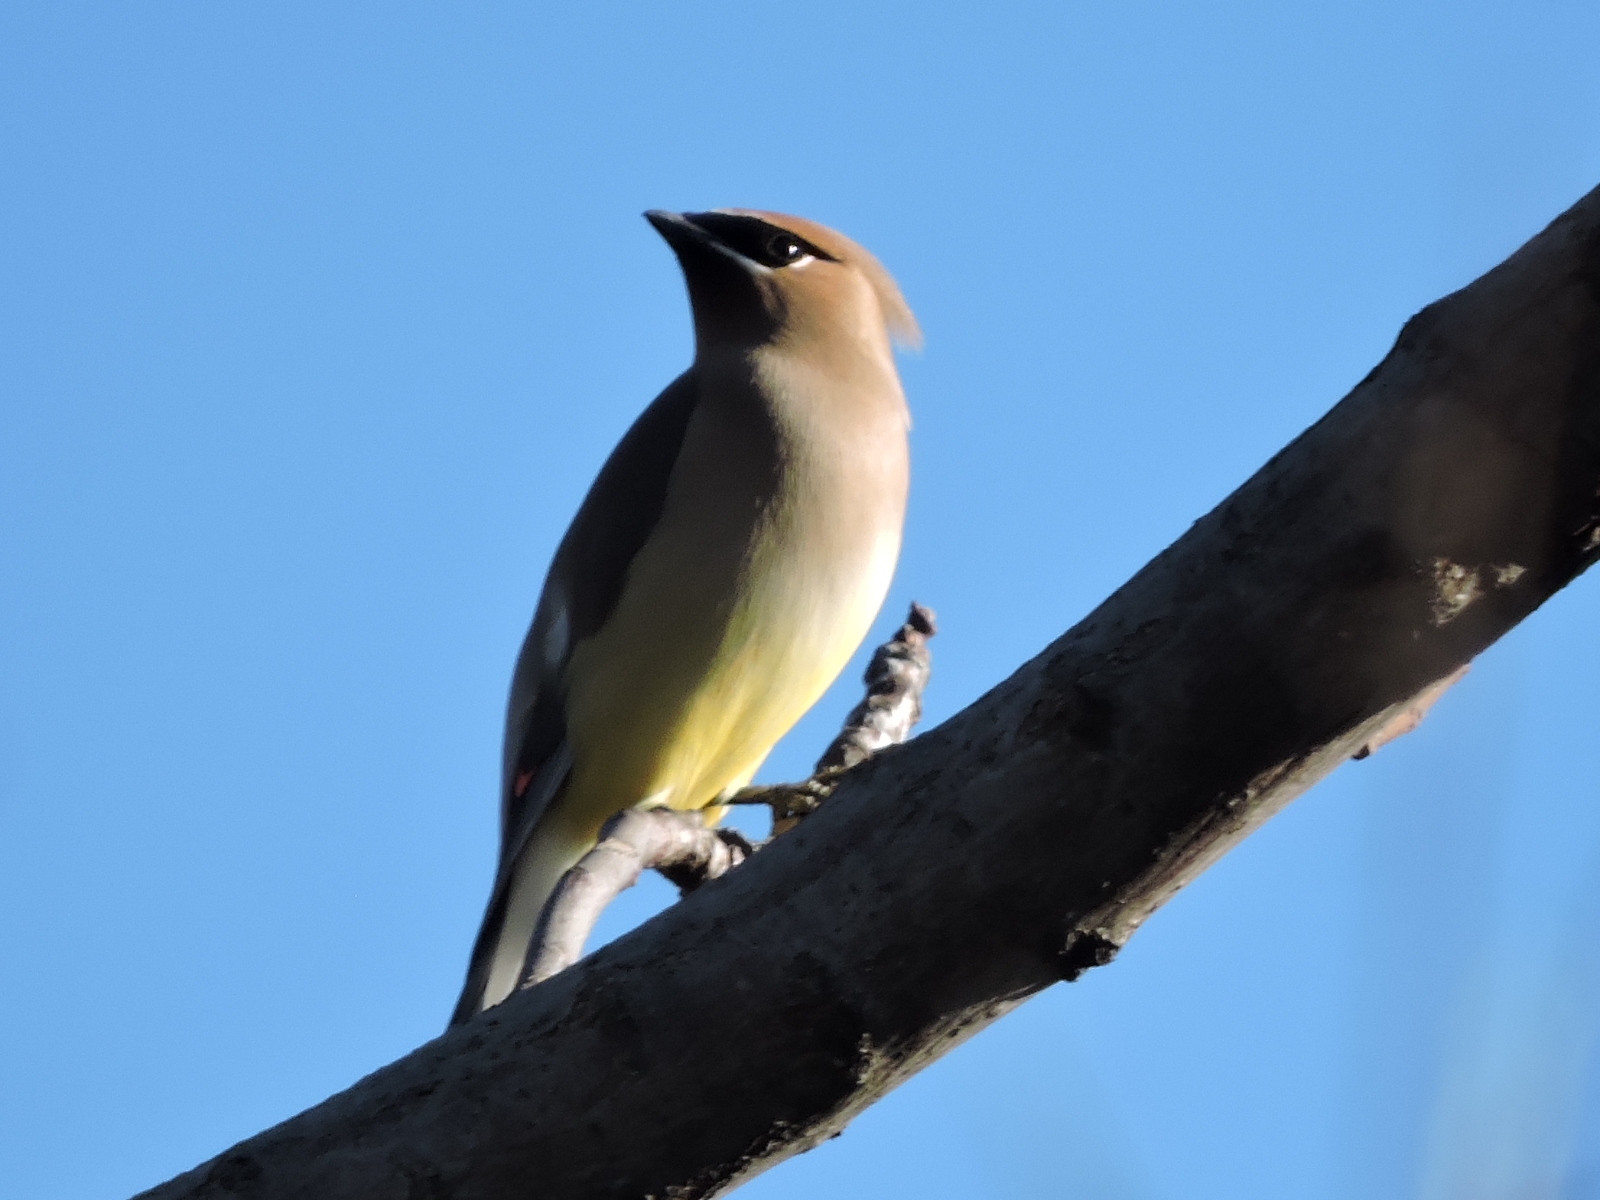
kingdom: Animalia
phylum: Chordata
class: Aves
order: Passeriformes
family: Bombycillidae
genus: Bombycilla
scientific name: Bombycilla cedrorum
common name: Cedar waxwing
